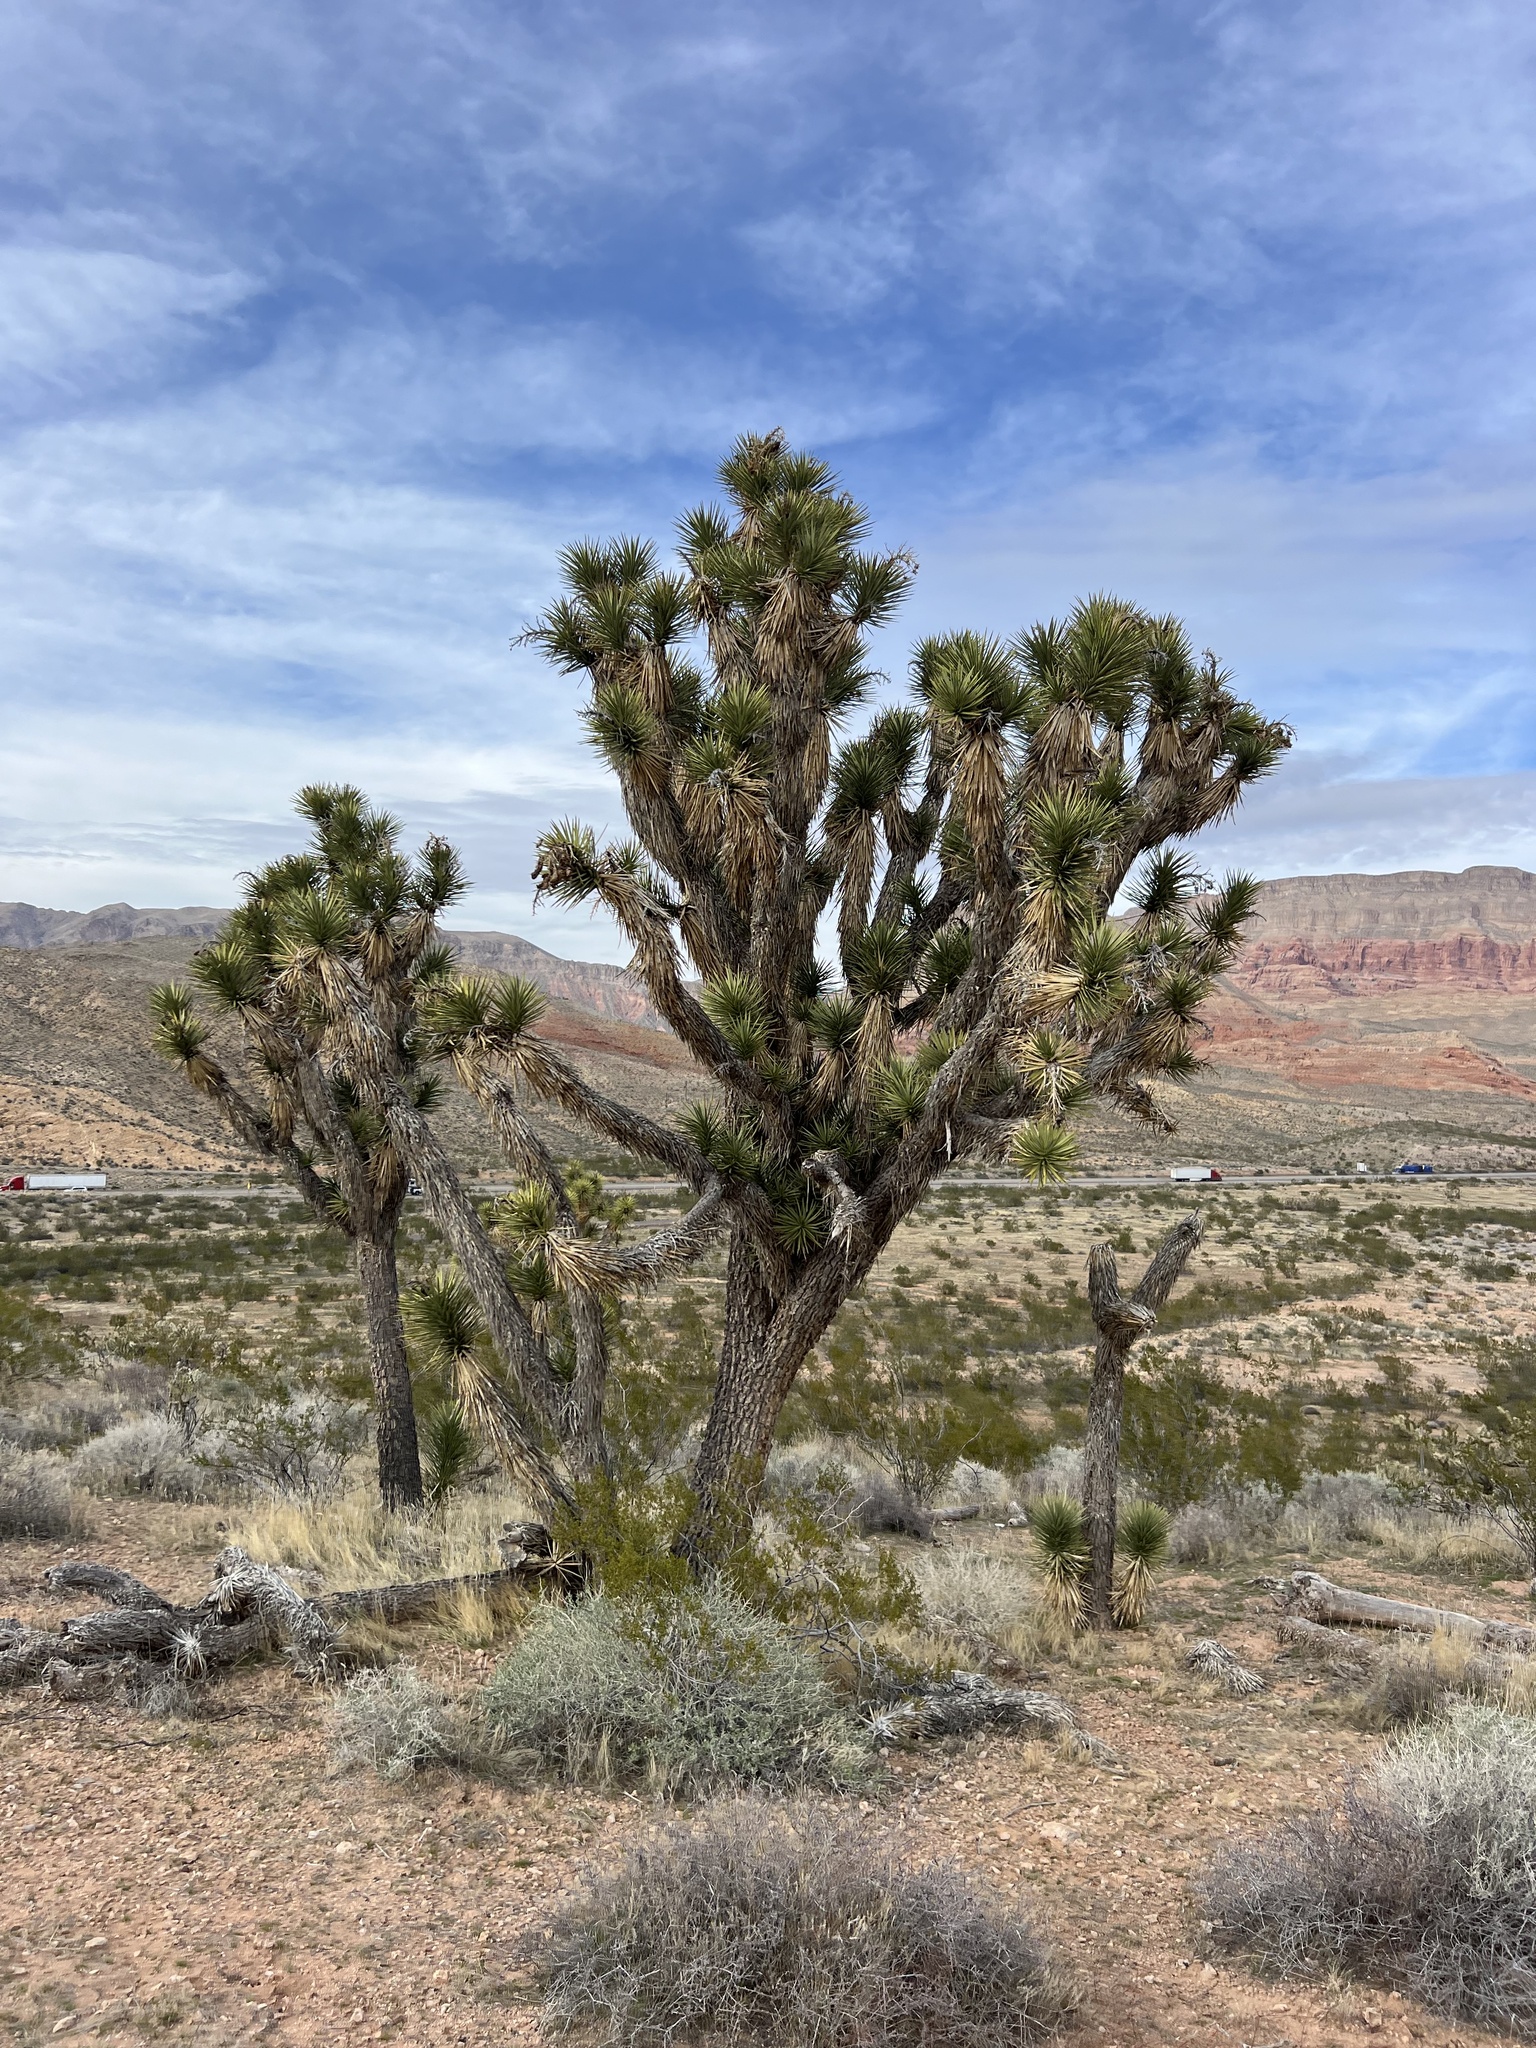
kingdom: Plantae
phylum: Tracheophyta
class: Liliopsida
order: Asparagales
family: Asparagaceae
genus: Yucca
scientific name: Yucca brevifolia
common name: Joshua tree
